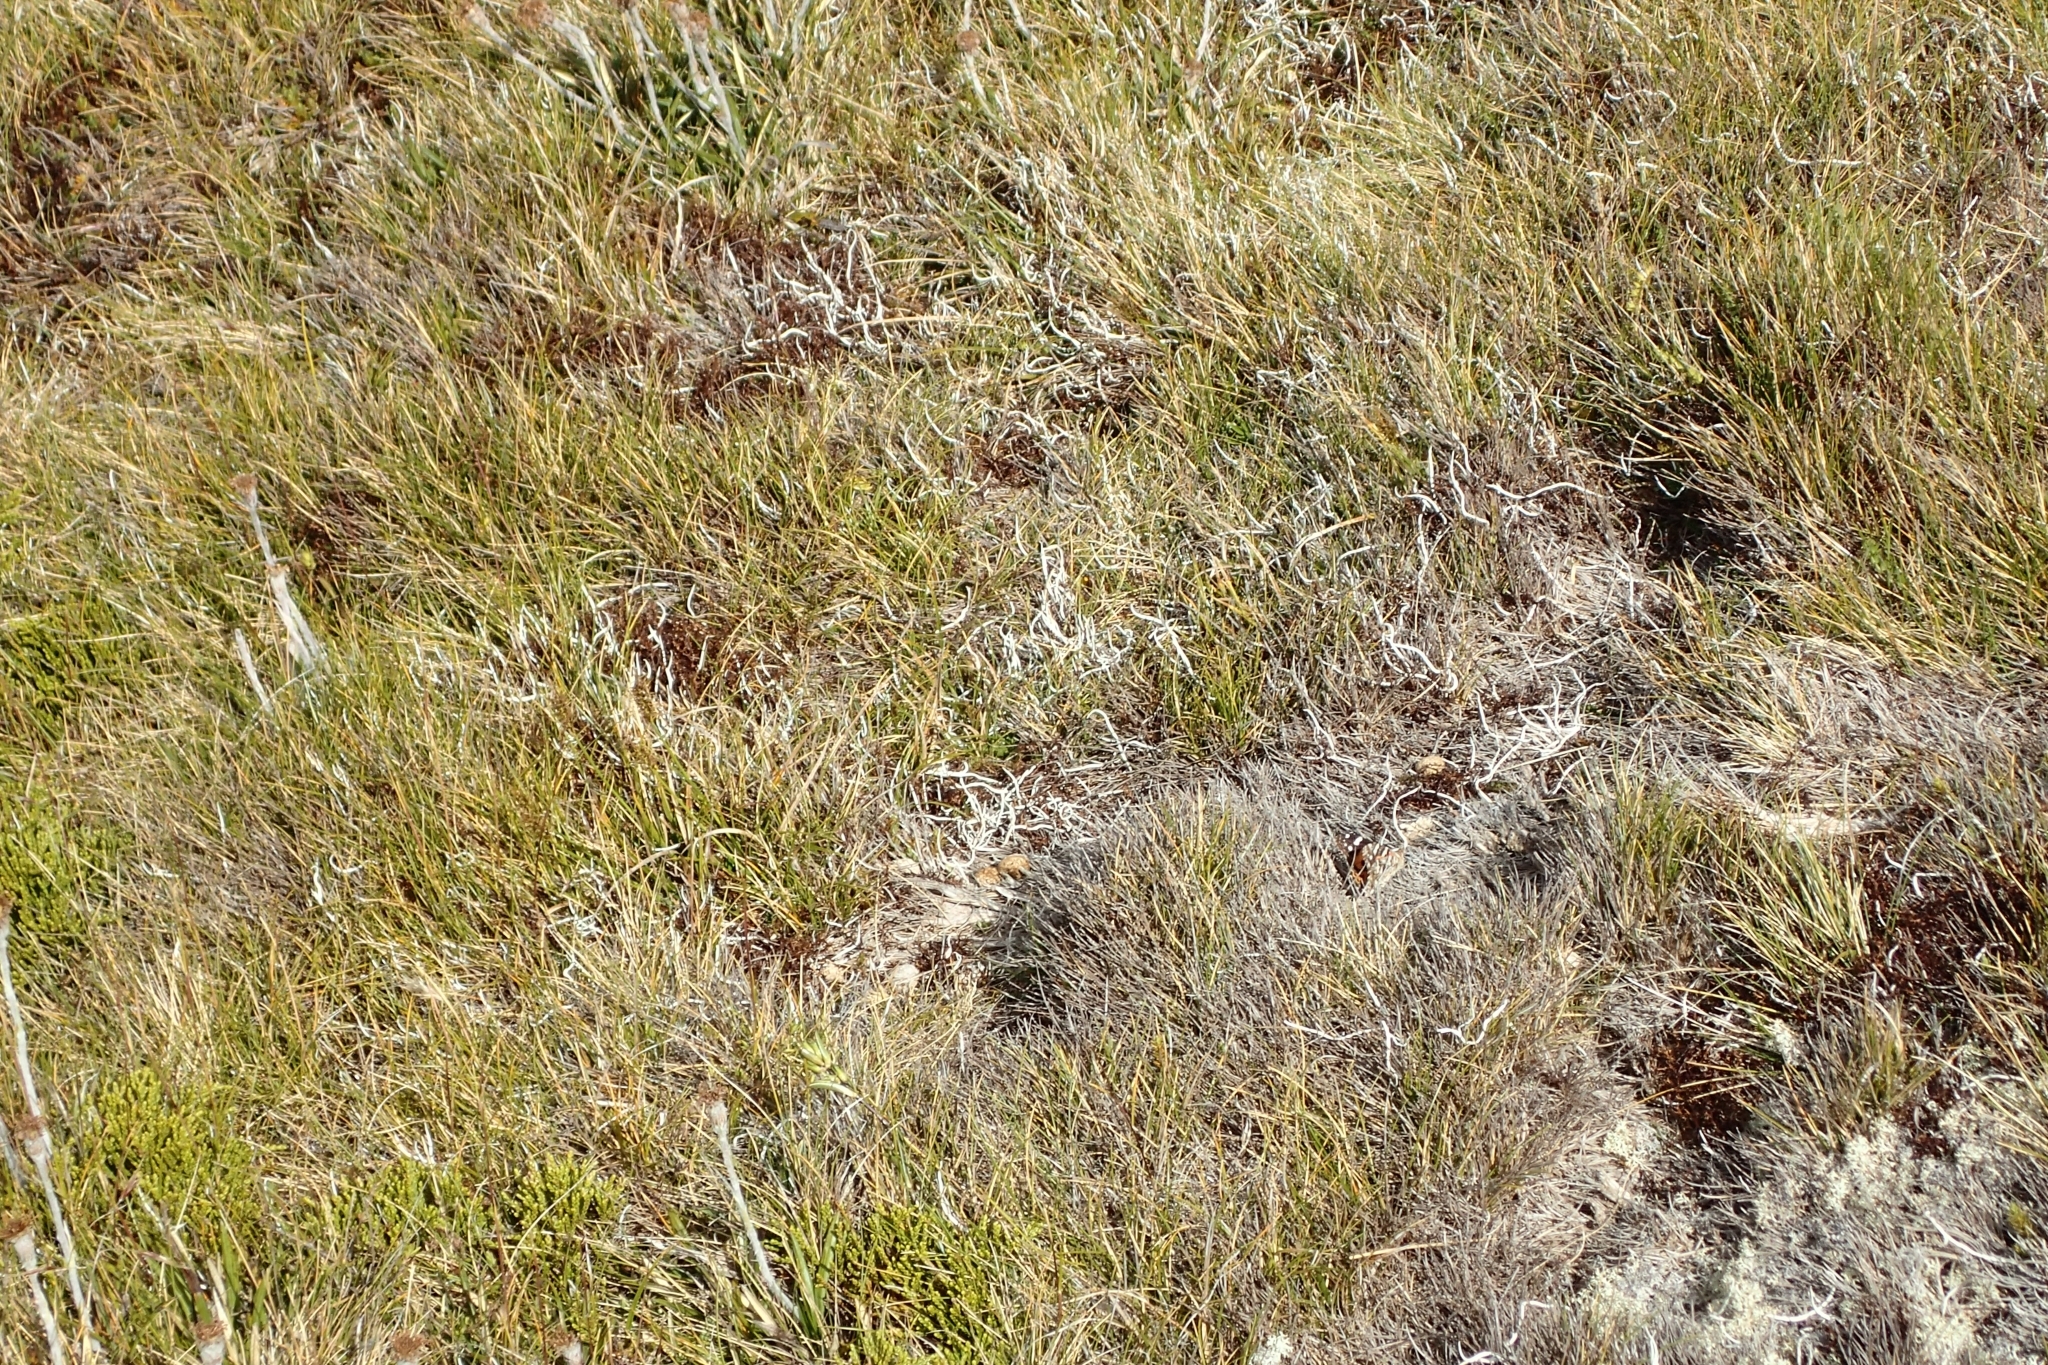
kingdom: Animalia
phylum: Arthropoda
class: Insecta
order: Lepidoptera
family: Nymphalidae
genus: Vanessa
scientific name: Vanessa kershawi
